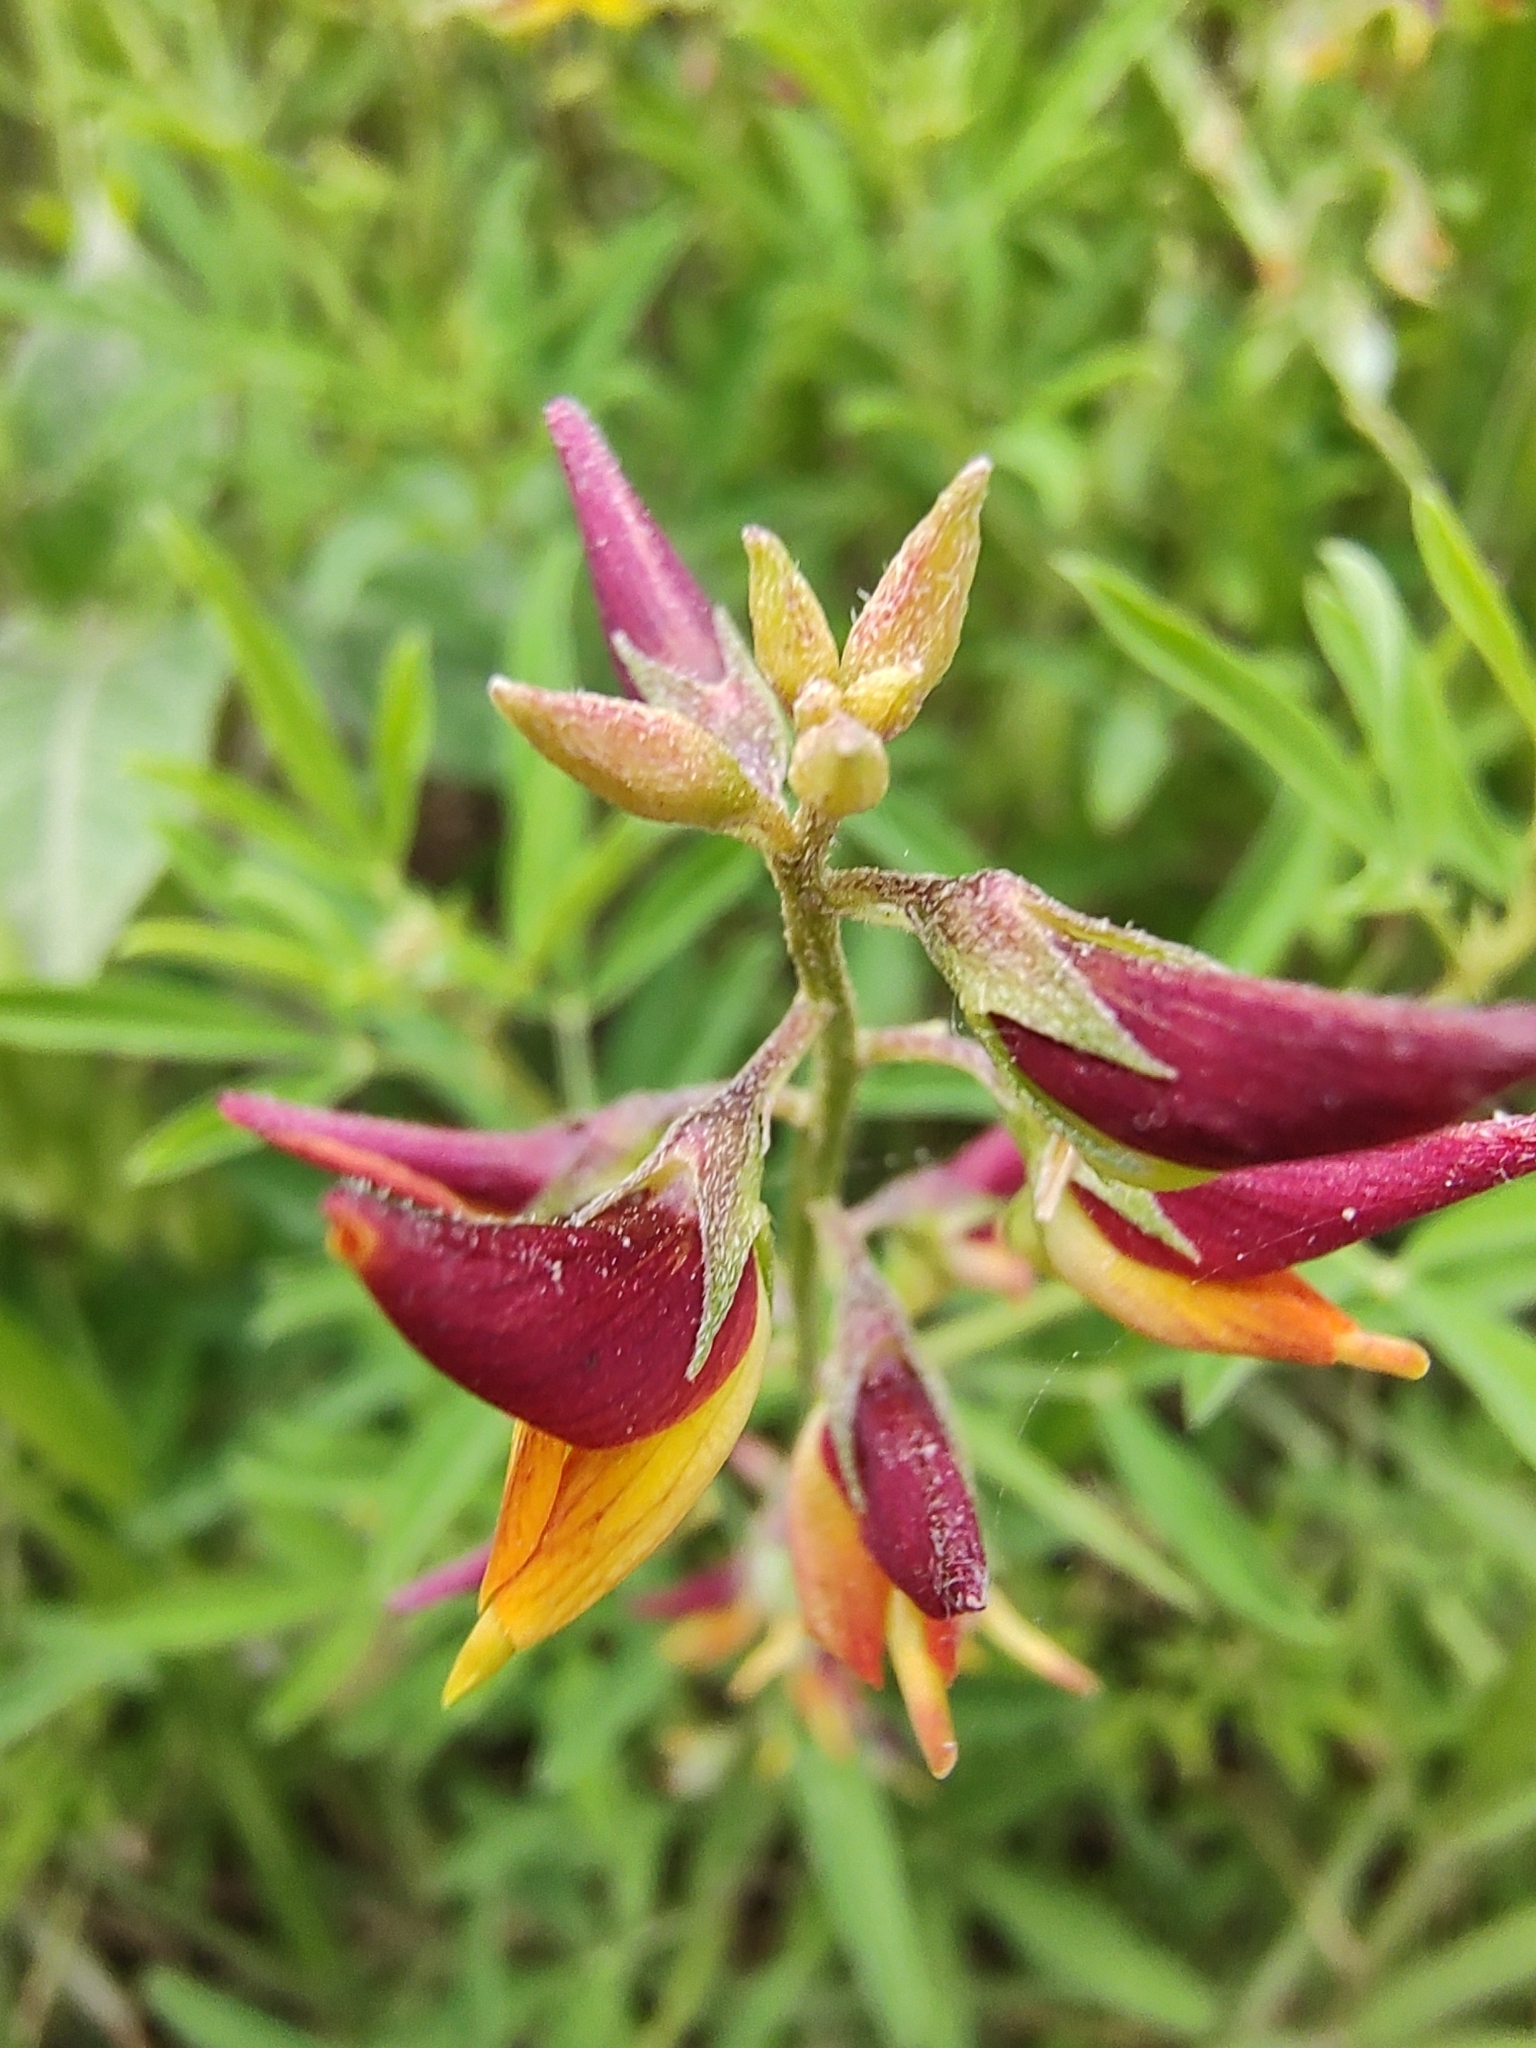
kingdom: Plantae
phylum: Tracheophyta
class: Magnoliopsida
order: Fabales
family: Fabaceae
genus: Crotalaria
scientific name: Crotalaria pumila
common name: Low rattlebox
